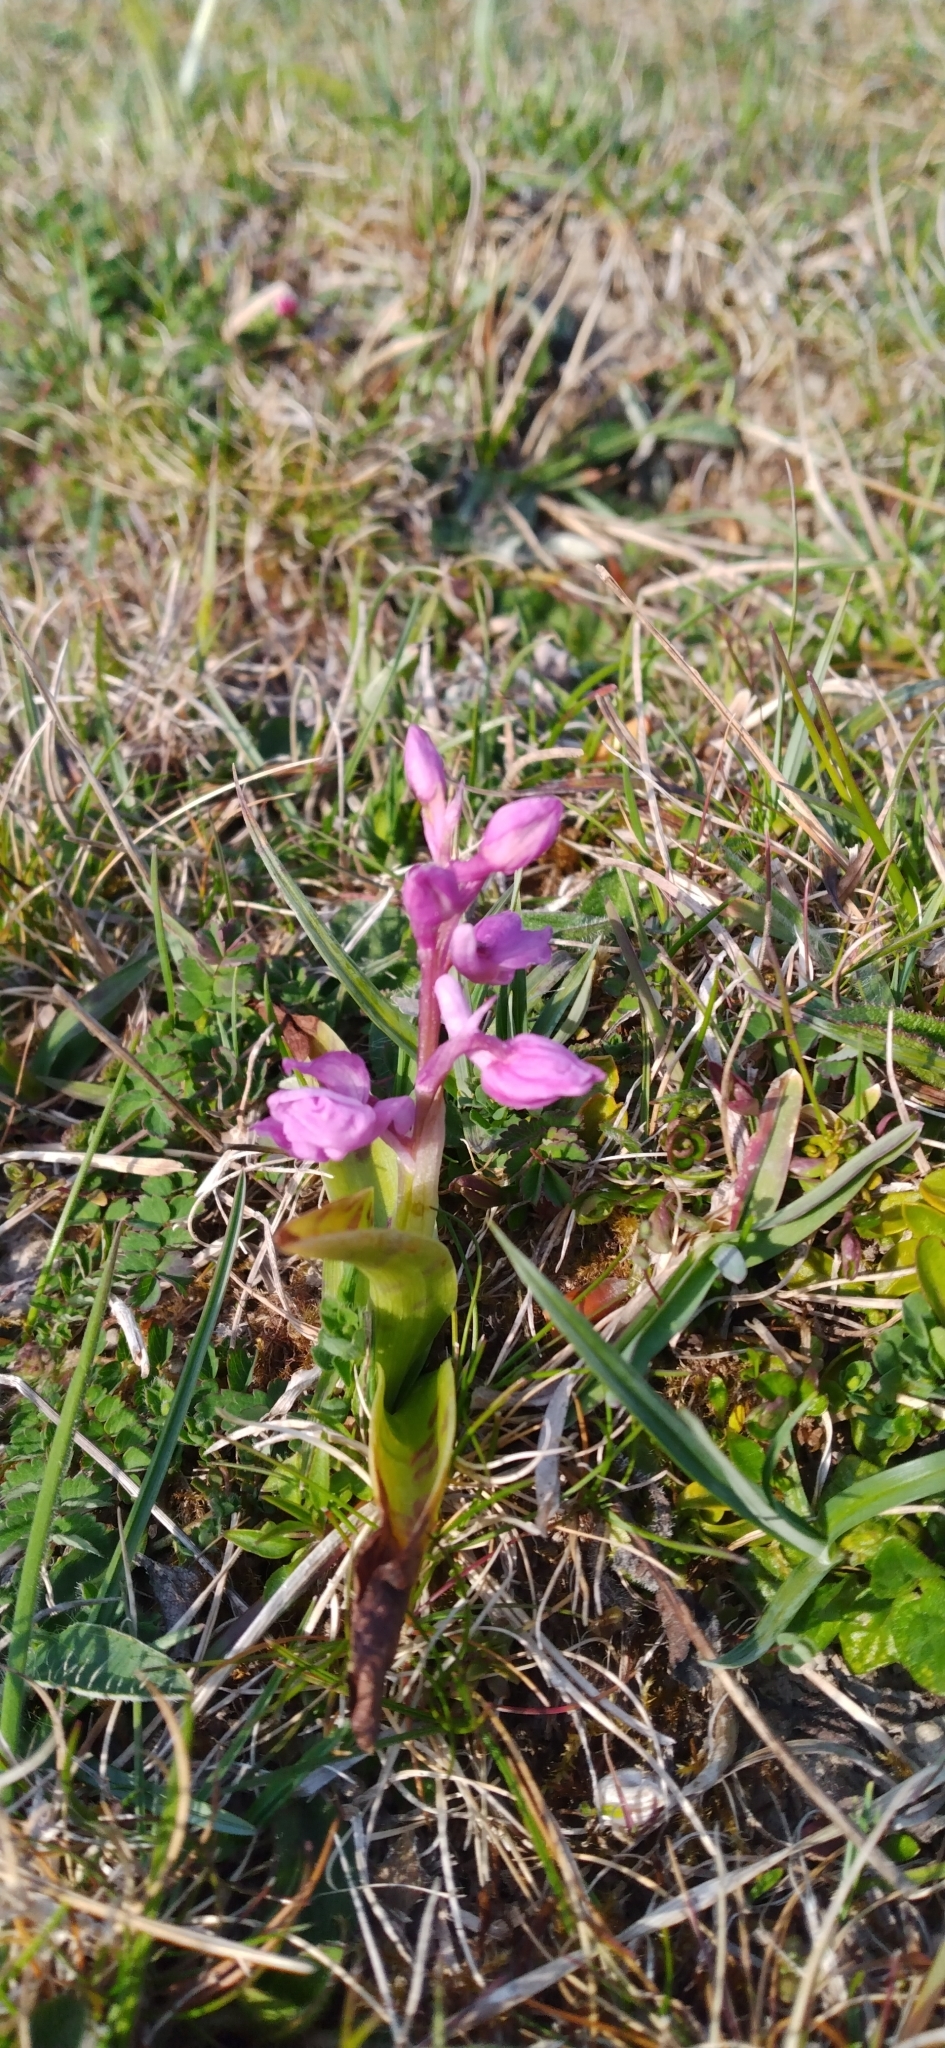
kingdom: Plantae
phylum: Tracheophyta
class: Liliopsida
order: Asparagales
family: Orchidaceae
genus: Orchis
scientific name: Orchis mascula
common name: Early-purple orchid
